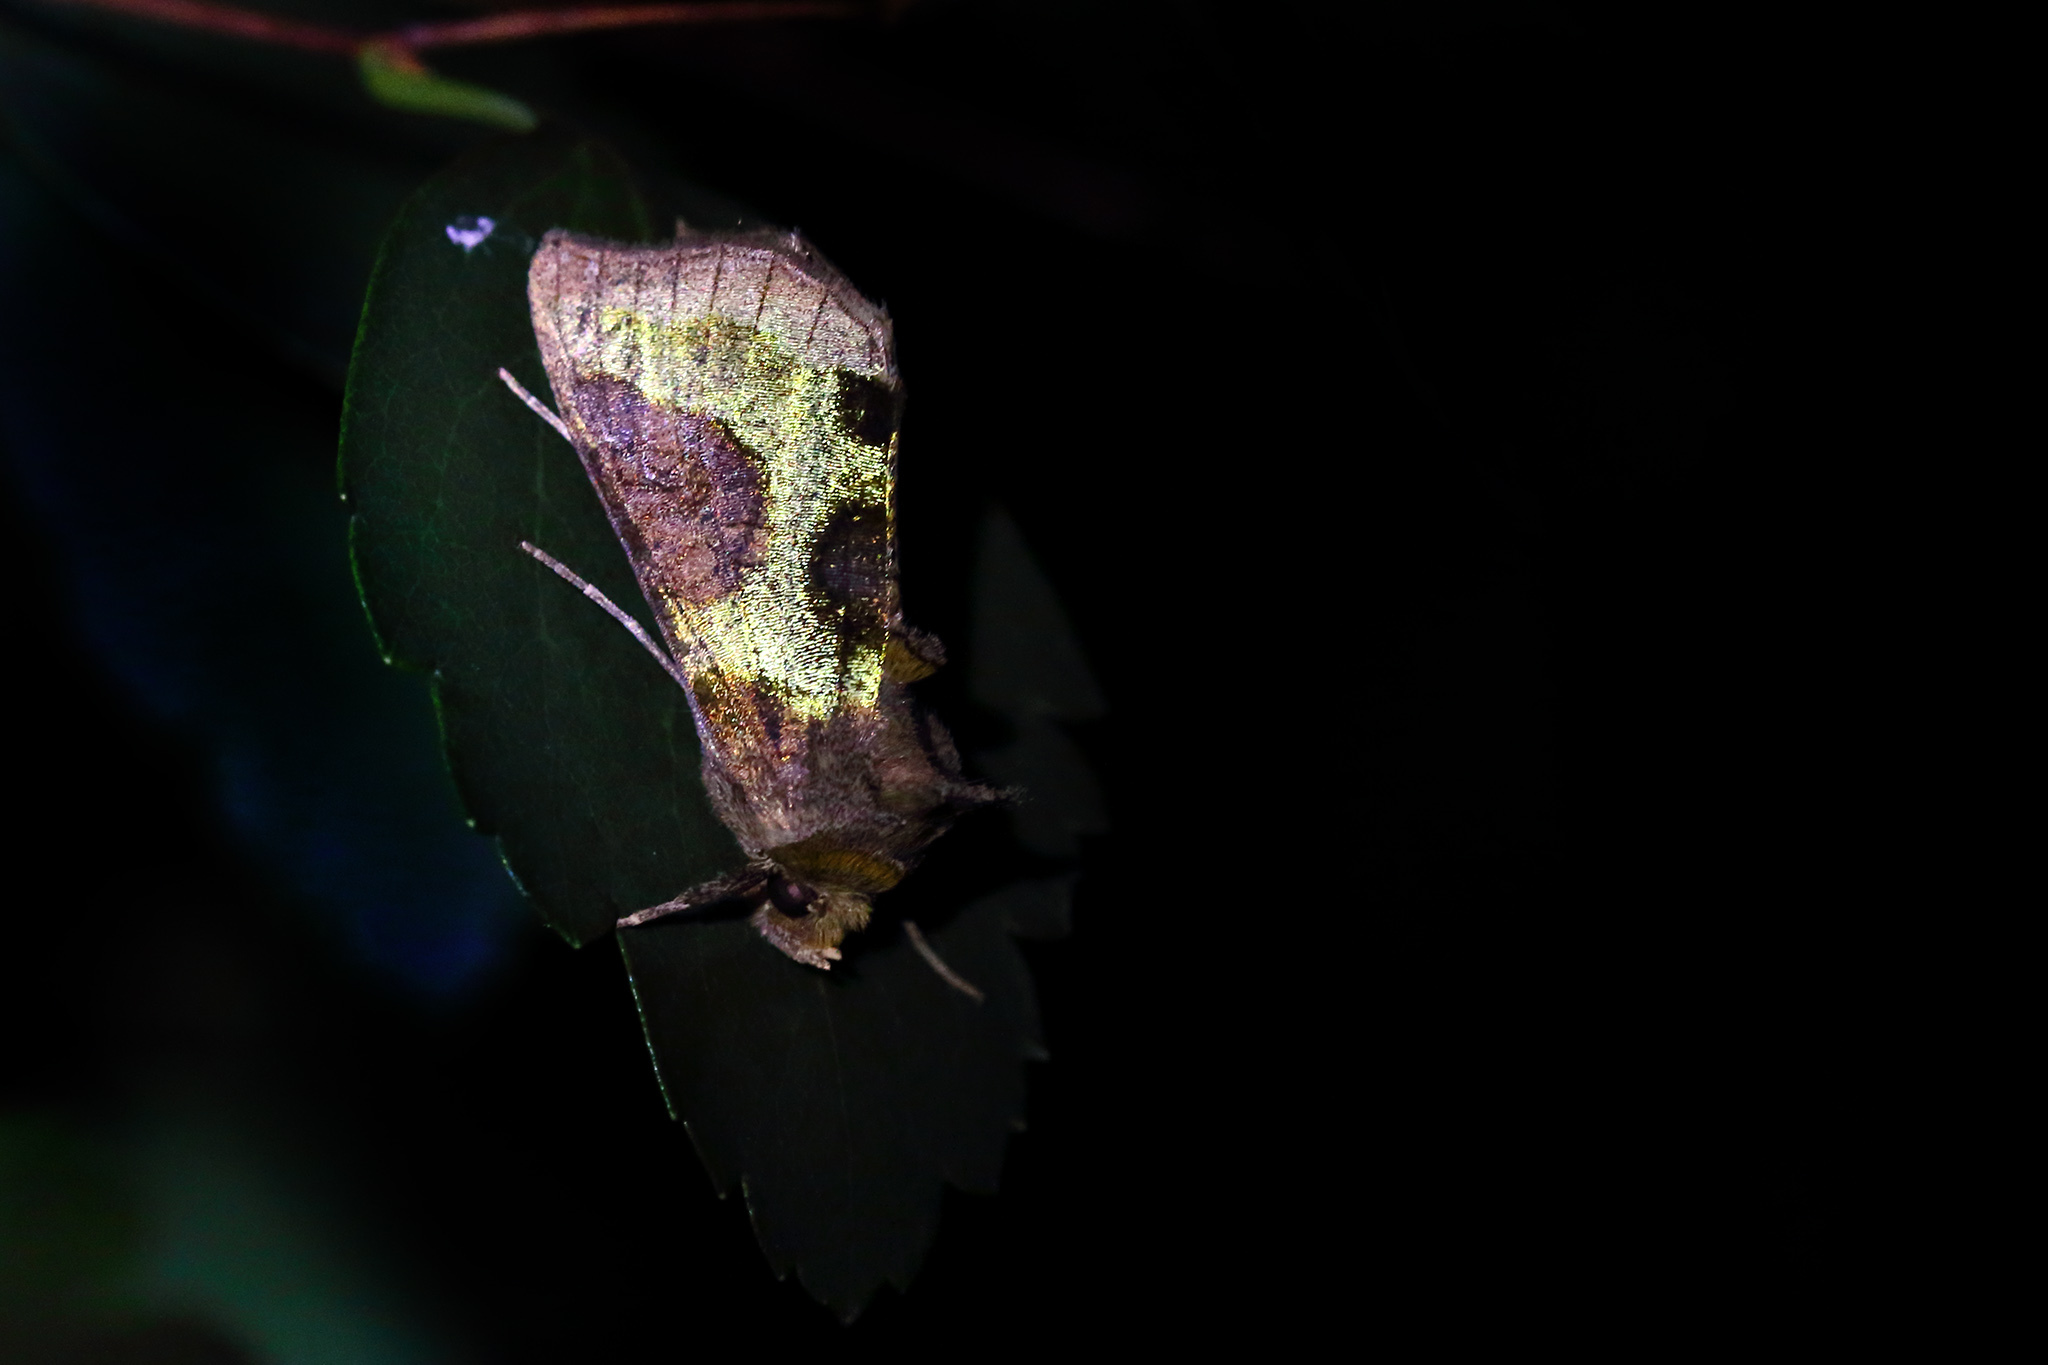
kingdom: Animalia
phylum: Arthropoda
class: Insecta
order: Lepidoptera
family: Noctuidae
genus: Diachrysia
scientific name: Diachrysia stenochrysis
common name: Cryptic burnished brass
